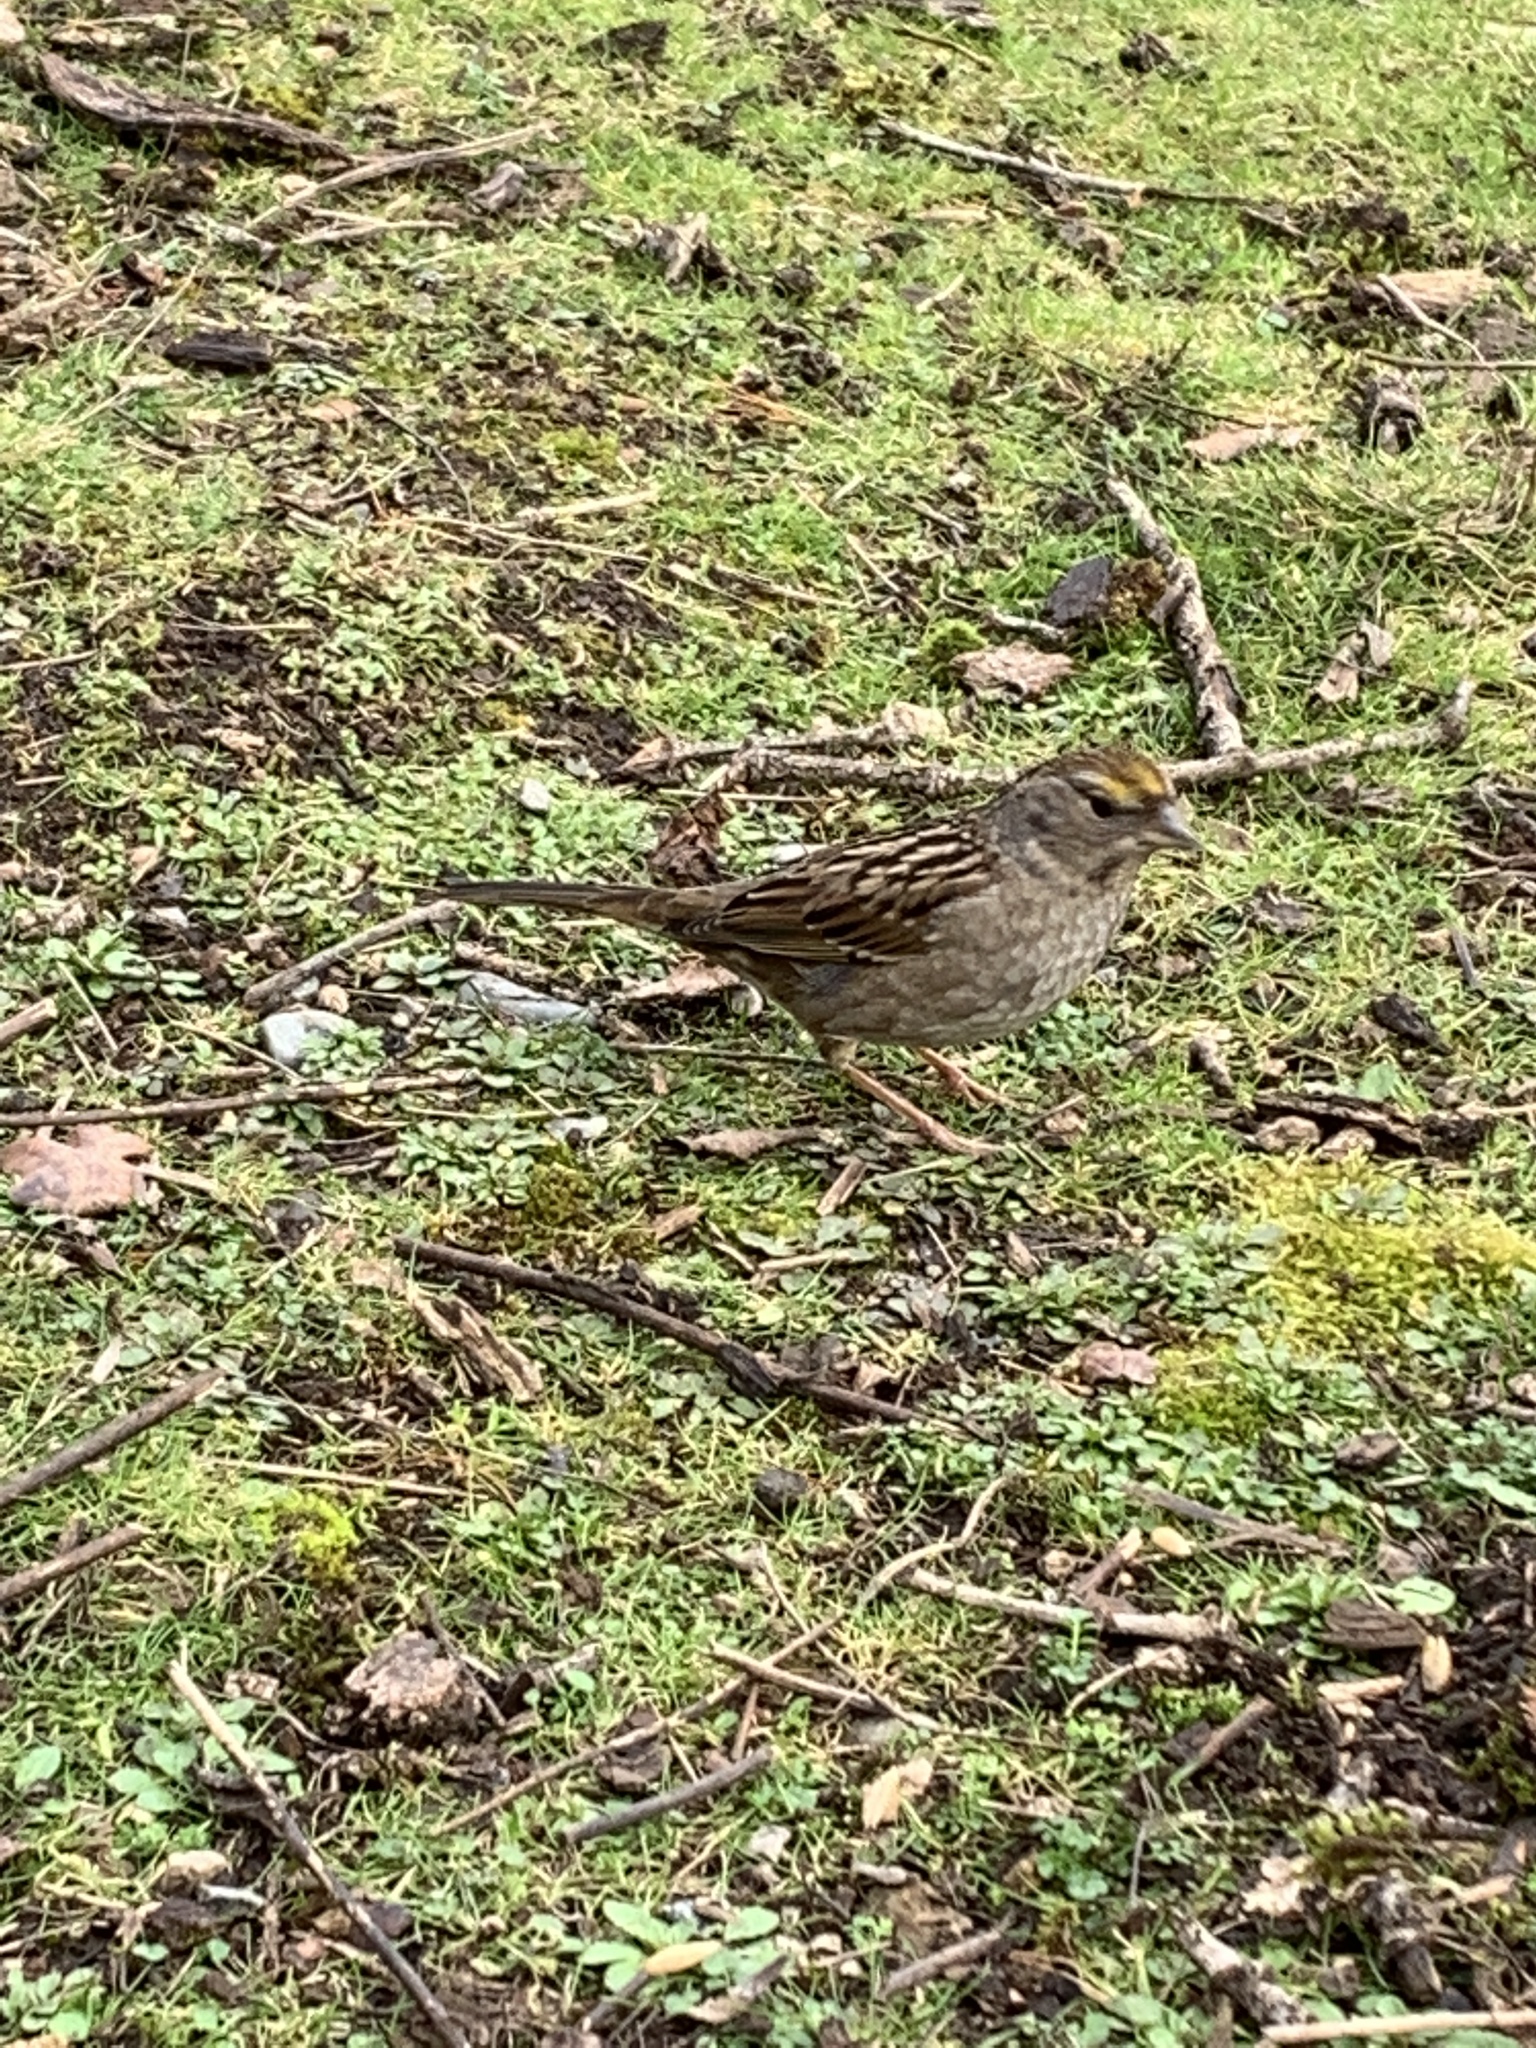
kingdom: Animalia
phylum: Chordata
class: Aves
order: Passeriformes
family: Passerellidae
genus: Zonotrichia
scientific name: Zonotrichia atricapilla
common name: Golden-crowned sparrow
